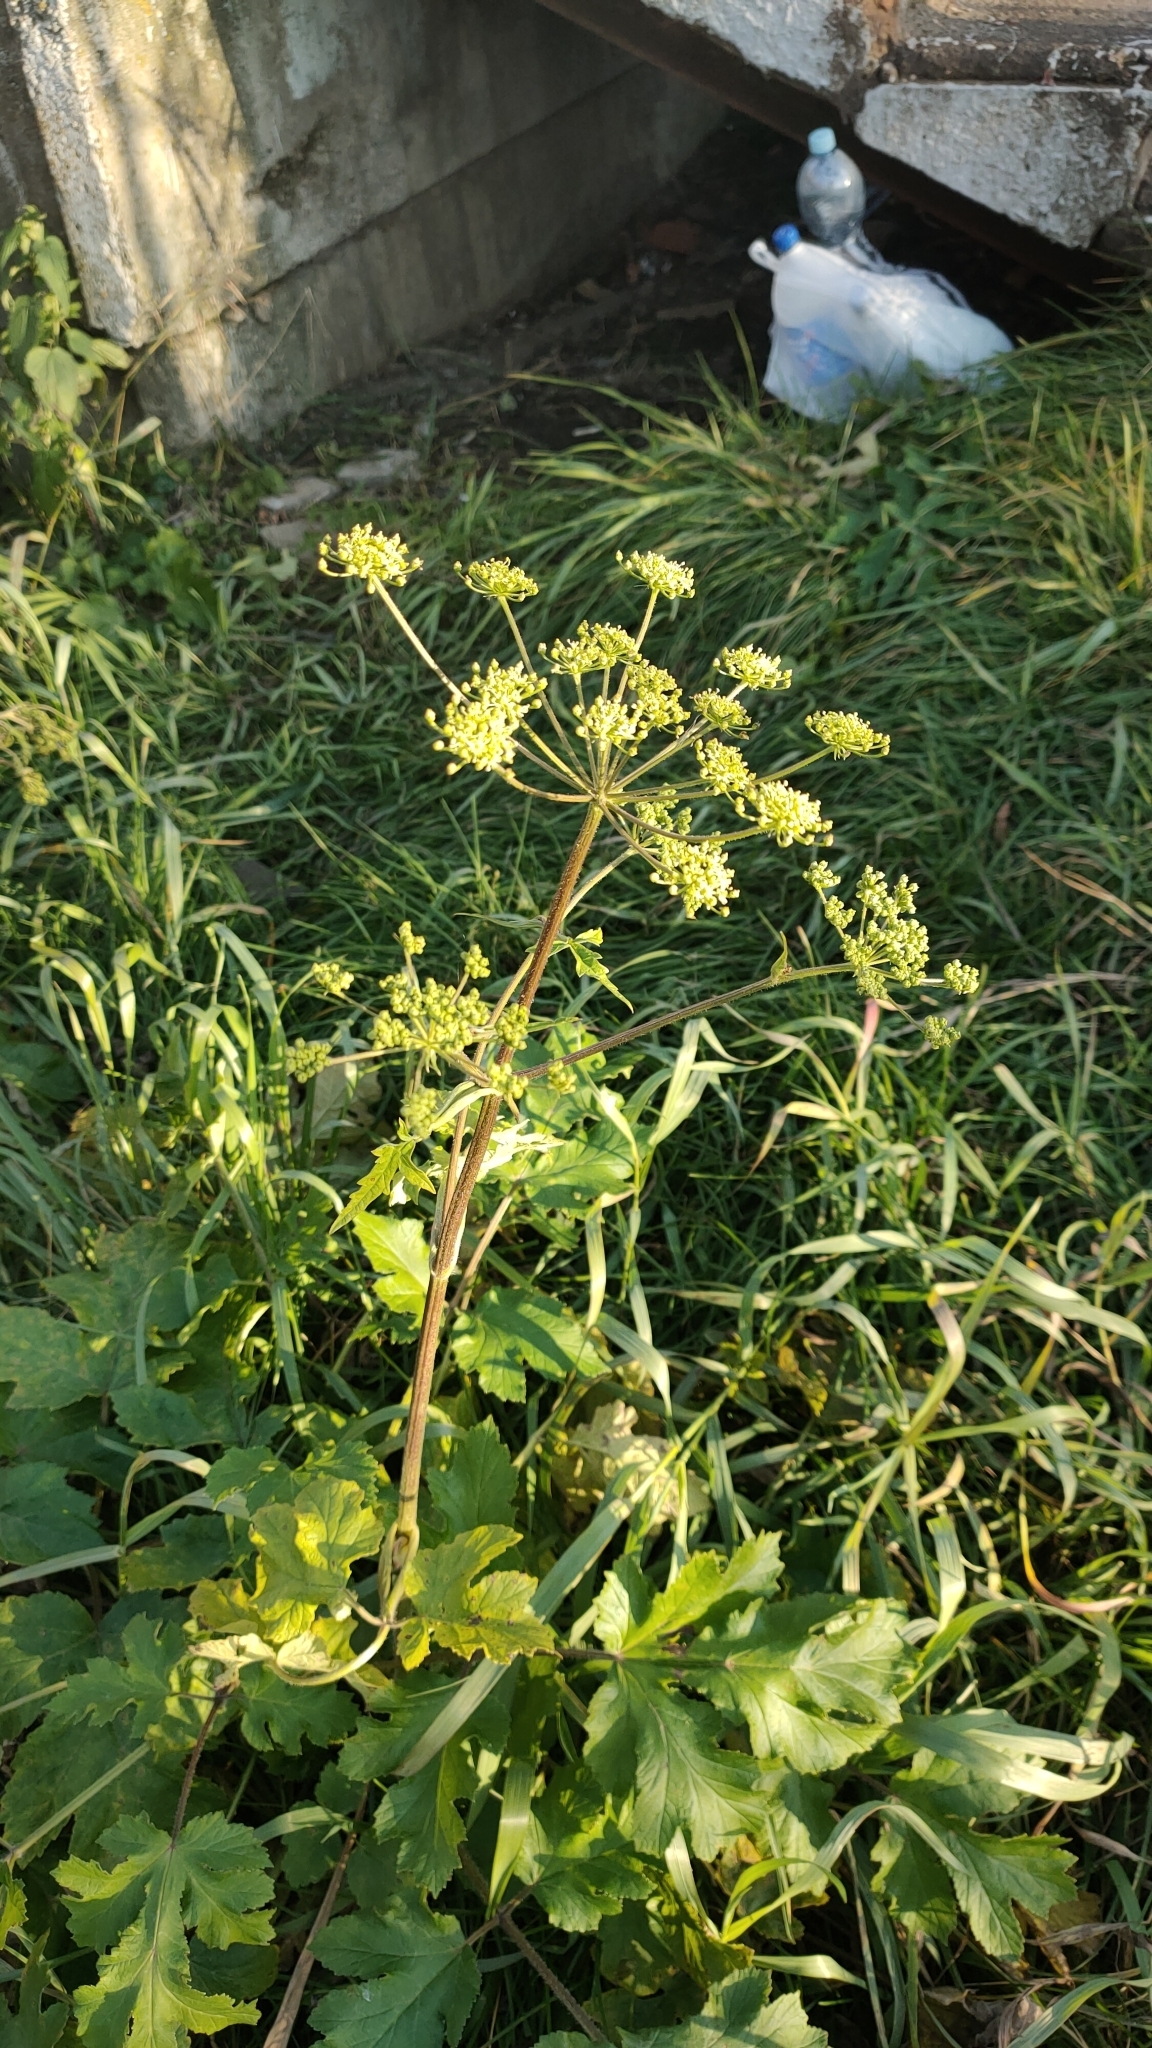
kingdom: Plantae
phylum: Tracheophyta
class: Magnoliopsida
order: Apiales
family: Apiaceae
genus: Heracleum
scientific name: Heracleum sphondylium
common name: Hogweed
